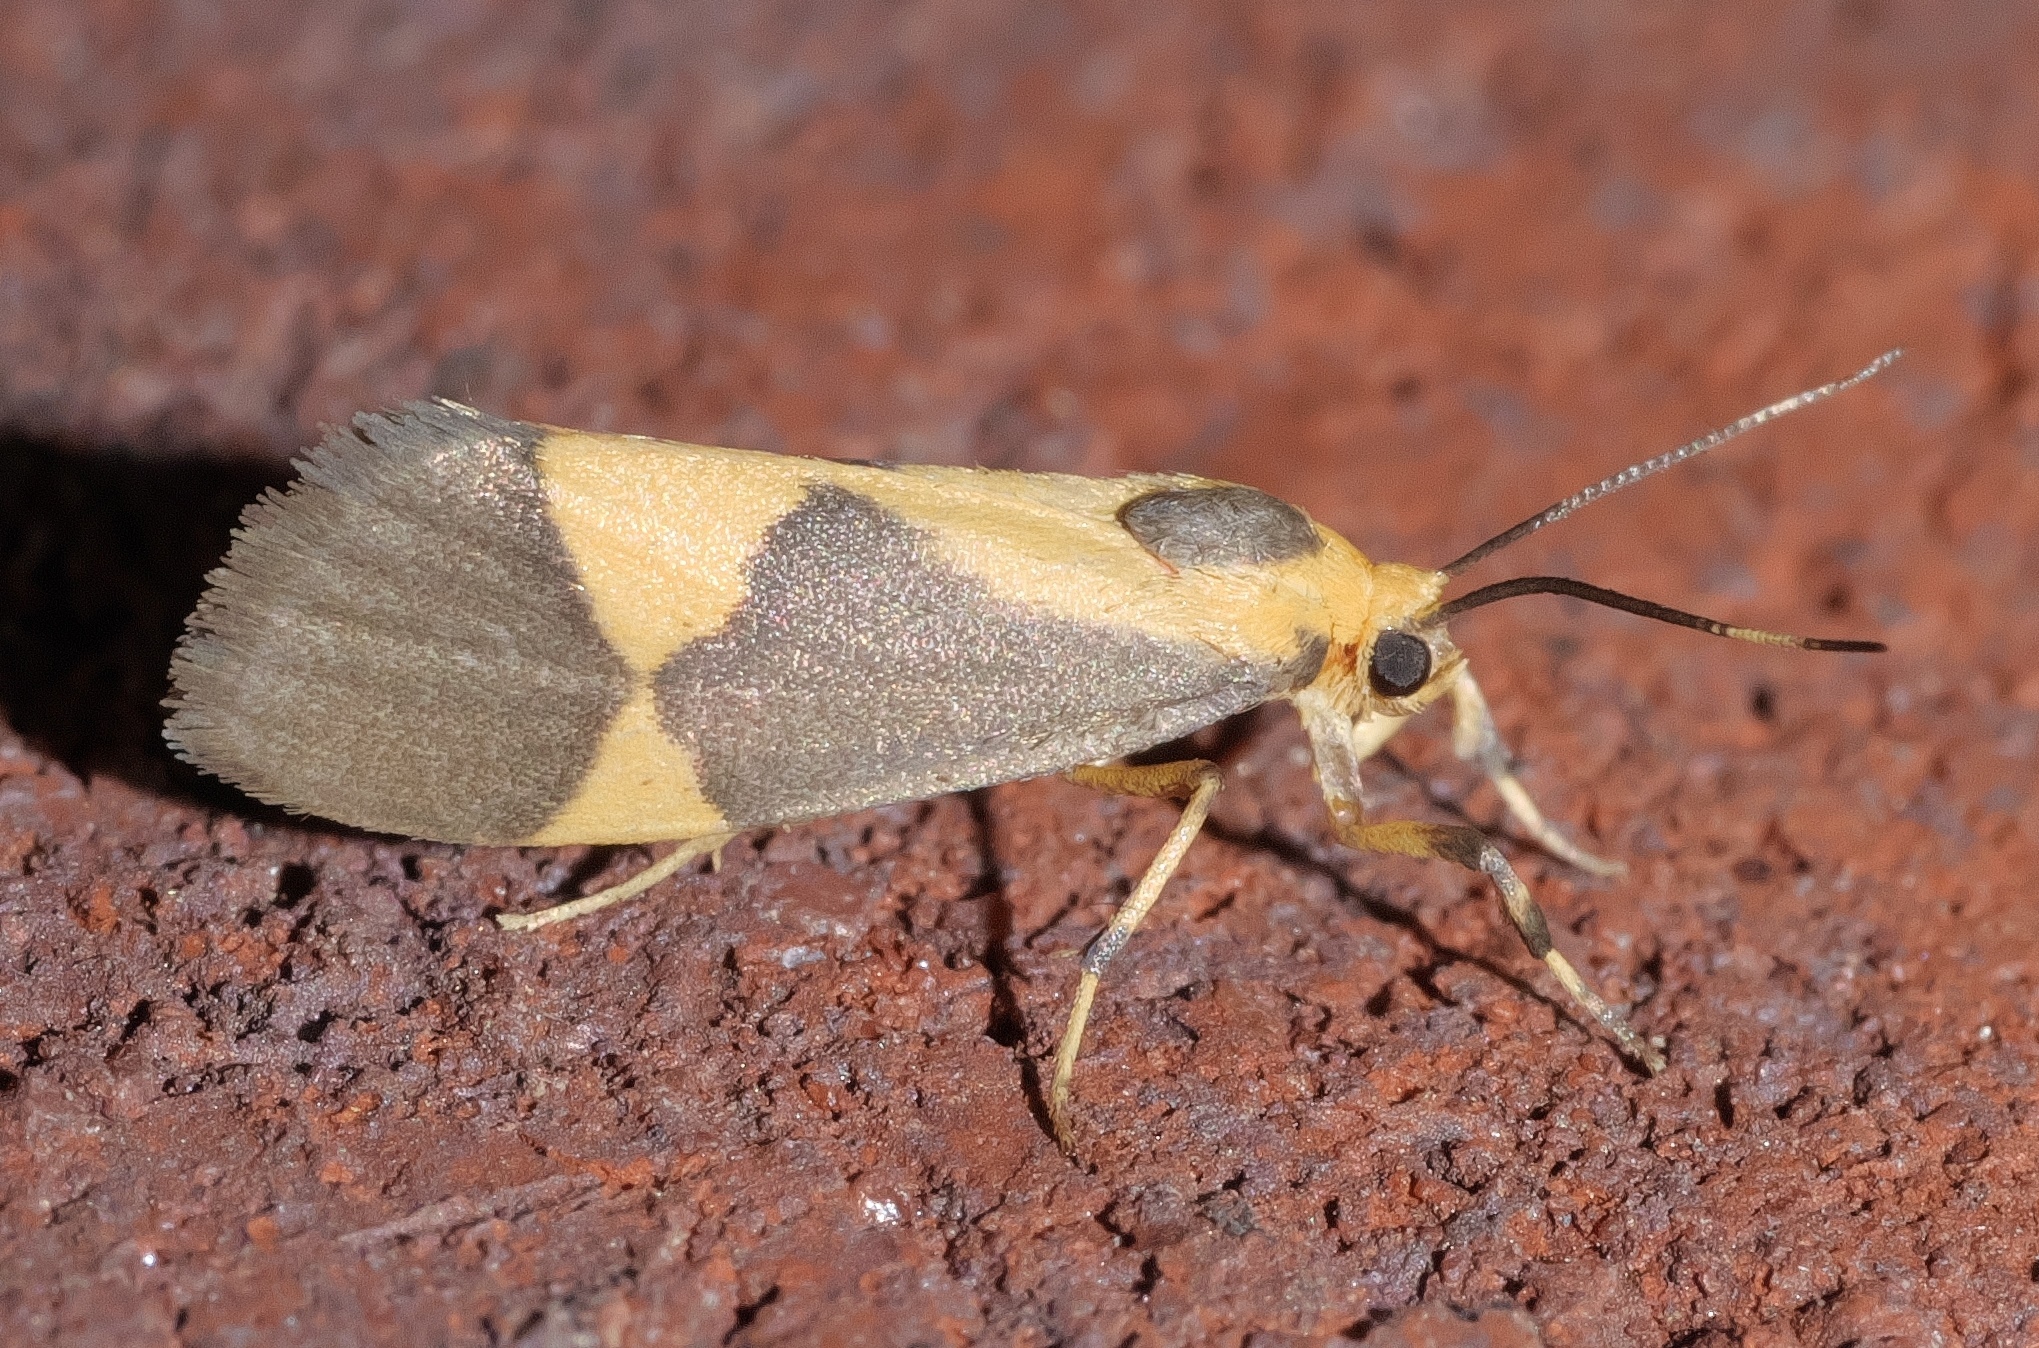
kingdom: Animalia
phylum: Arthropoda
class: Insecta
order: Lepidoptera
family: Erebidae
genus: Cisthene
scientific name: Cisthene unifascia
